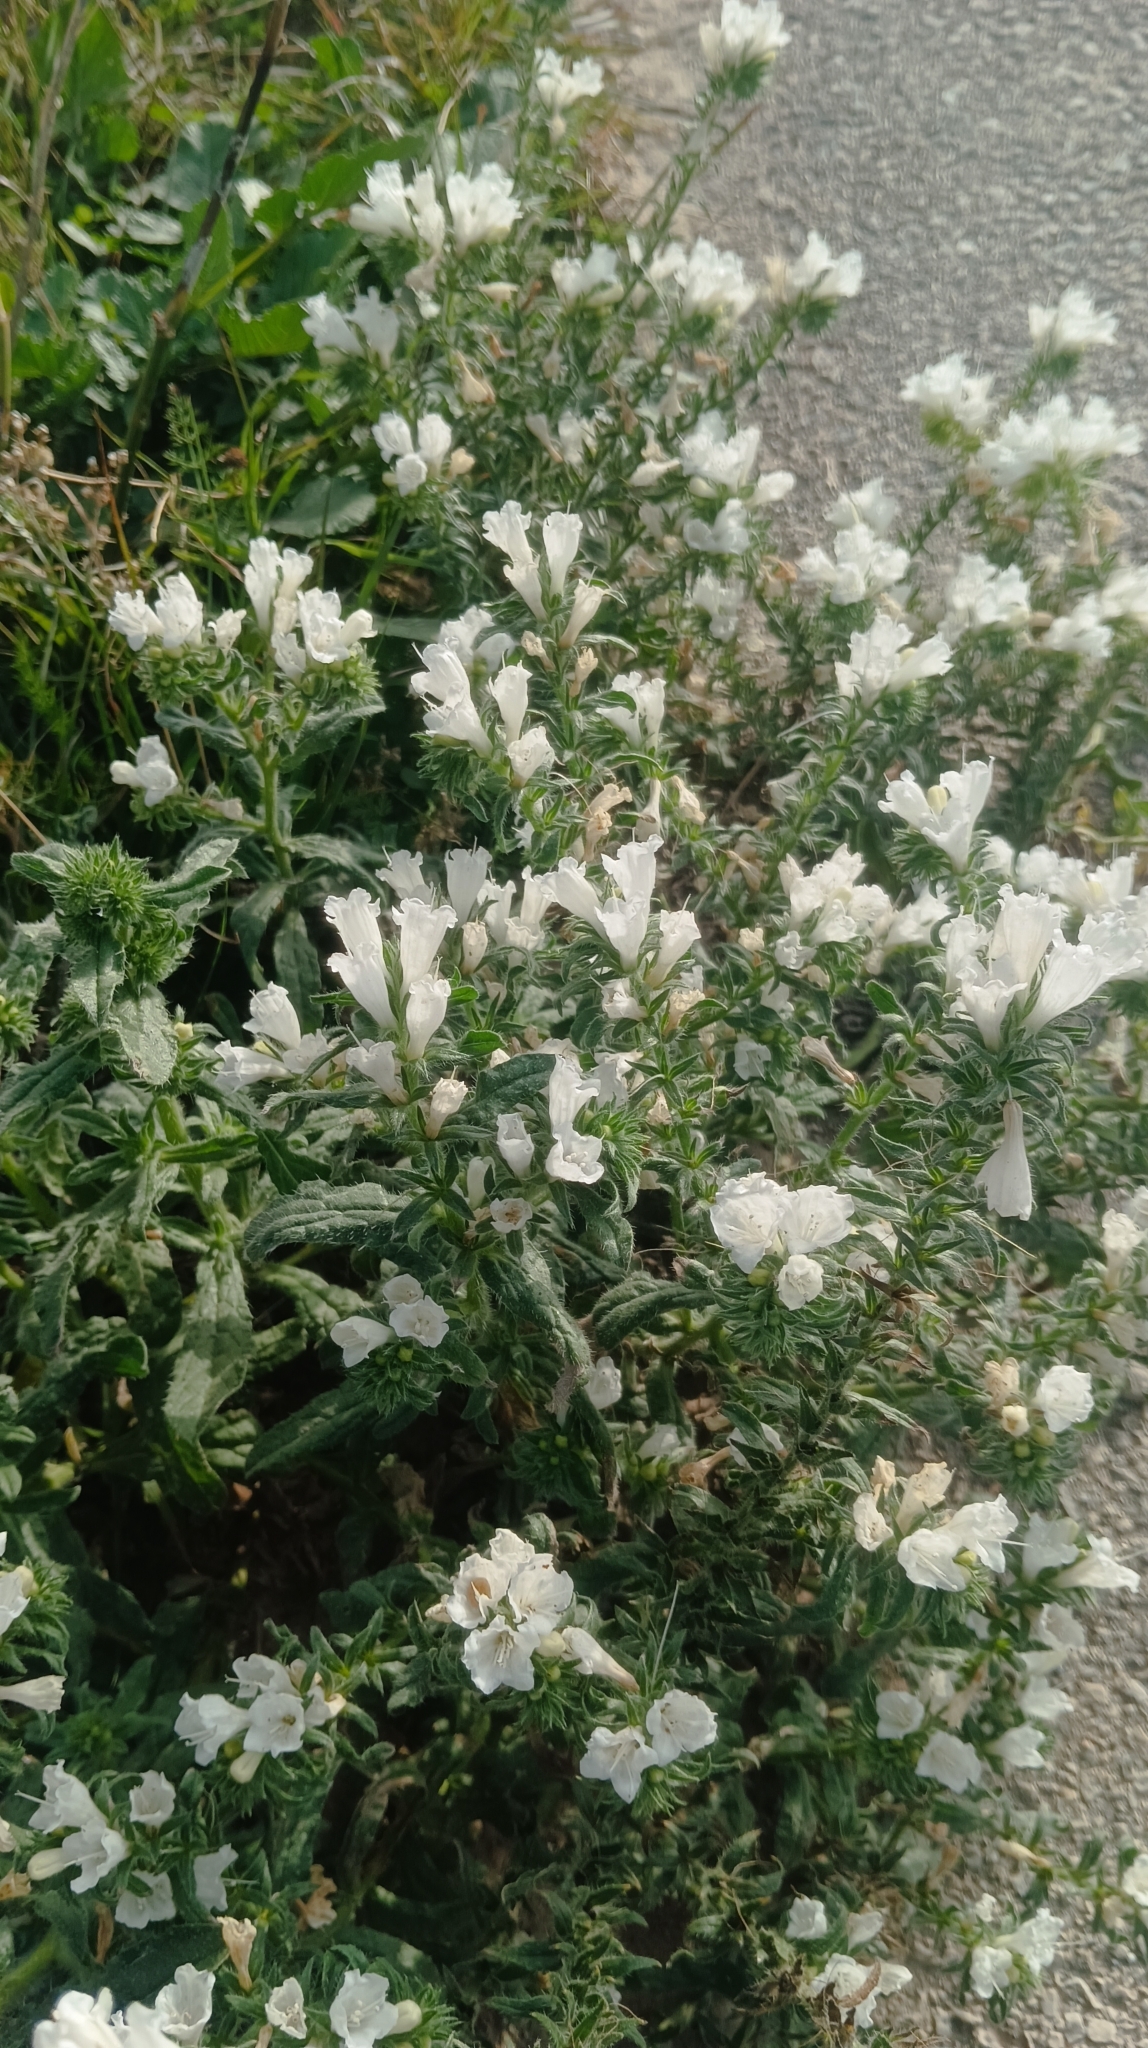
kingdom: Plantae
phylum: Tracheophyta
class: Magnoliopsida
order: Boraginales
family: Boraginaceae
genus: Echium
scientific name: Echium sabulicola
